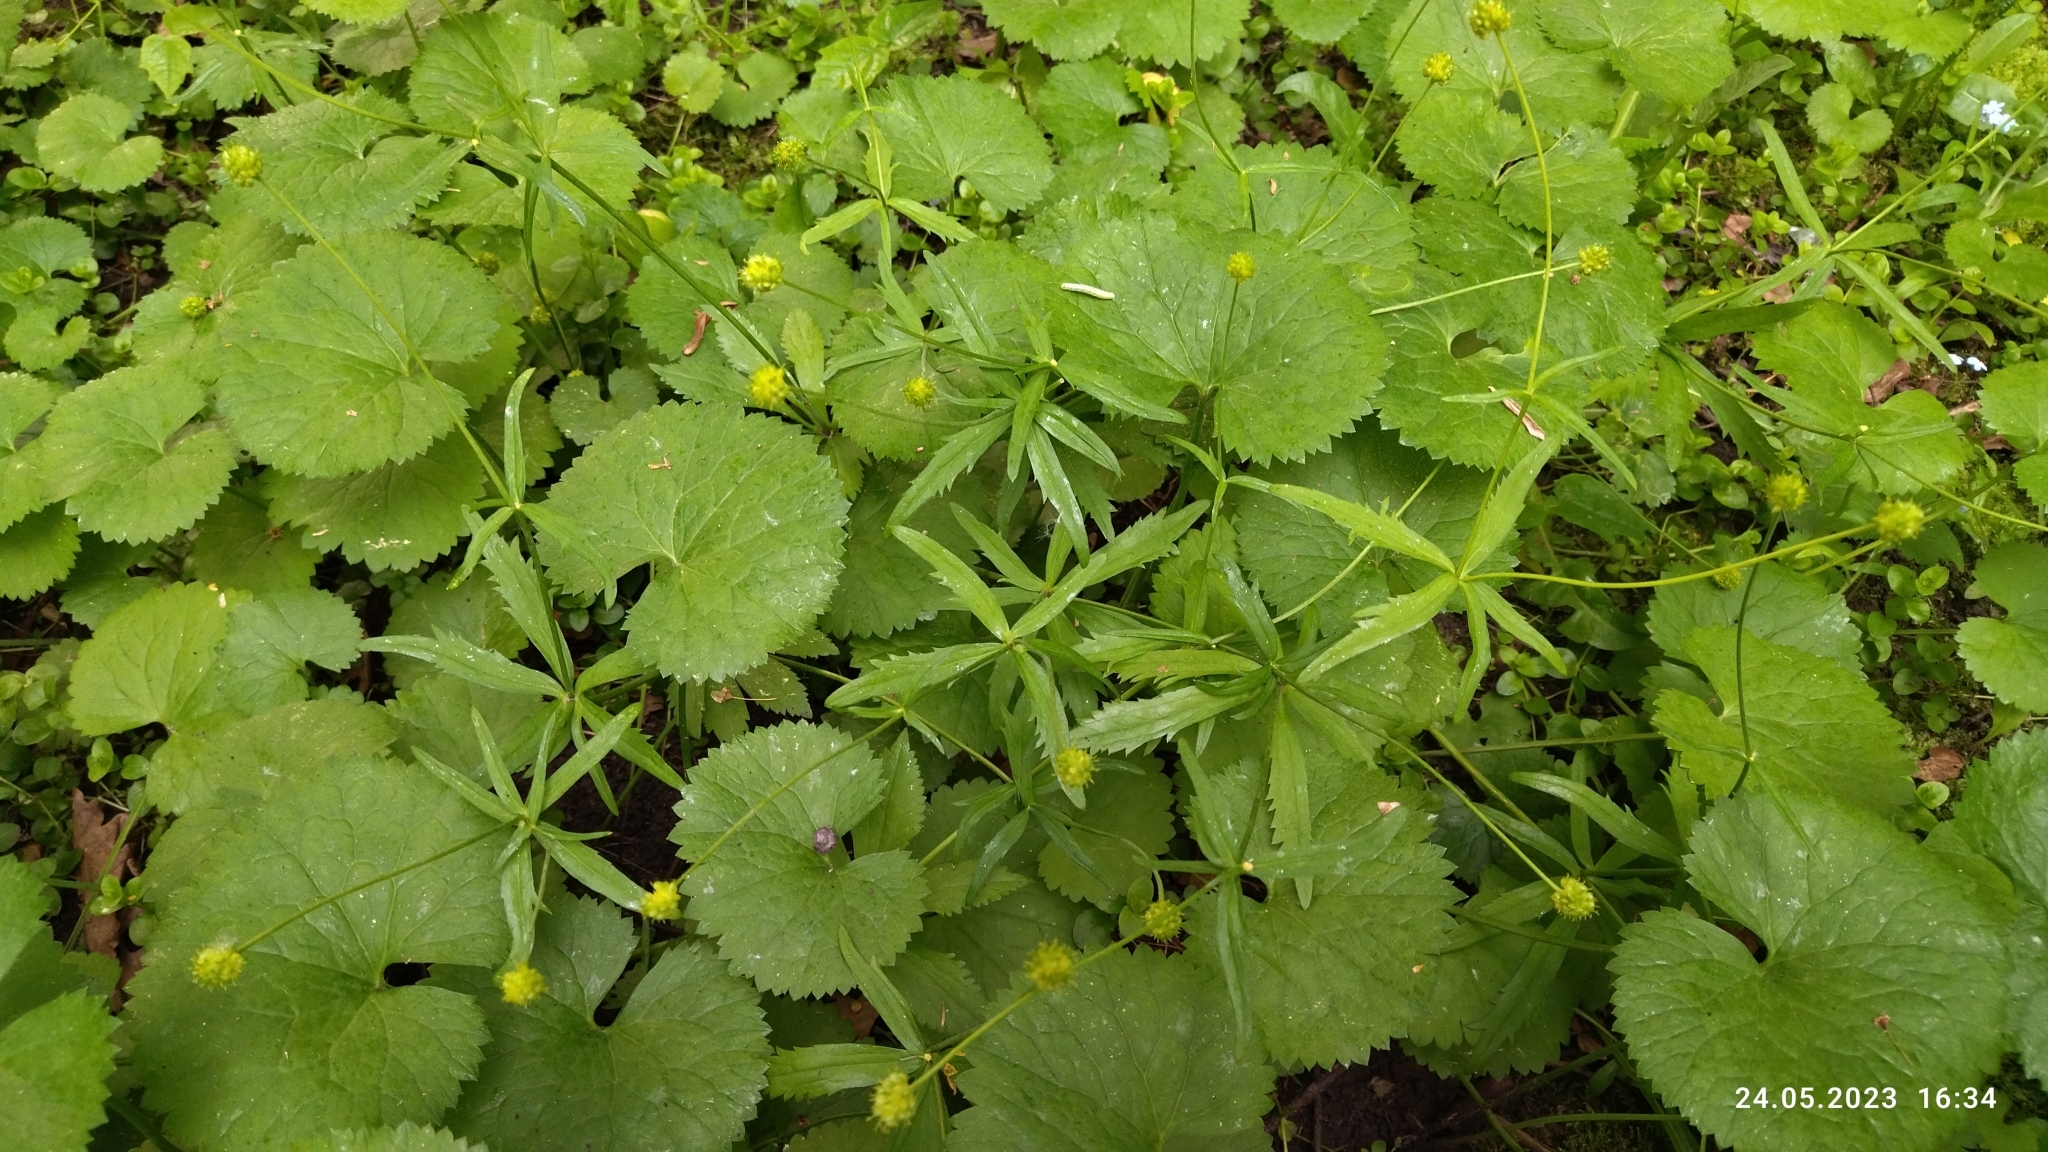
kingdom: Plantae
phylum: Tracheophyta
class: Magnoliopsida
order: Ranunculales
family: Ranunculaceae
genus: Ranunculus
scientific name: Ranunculus cassubicus
